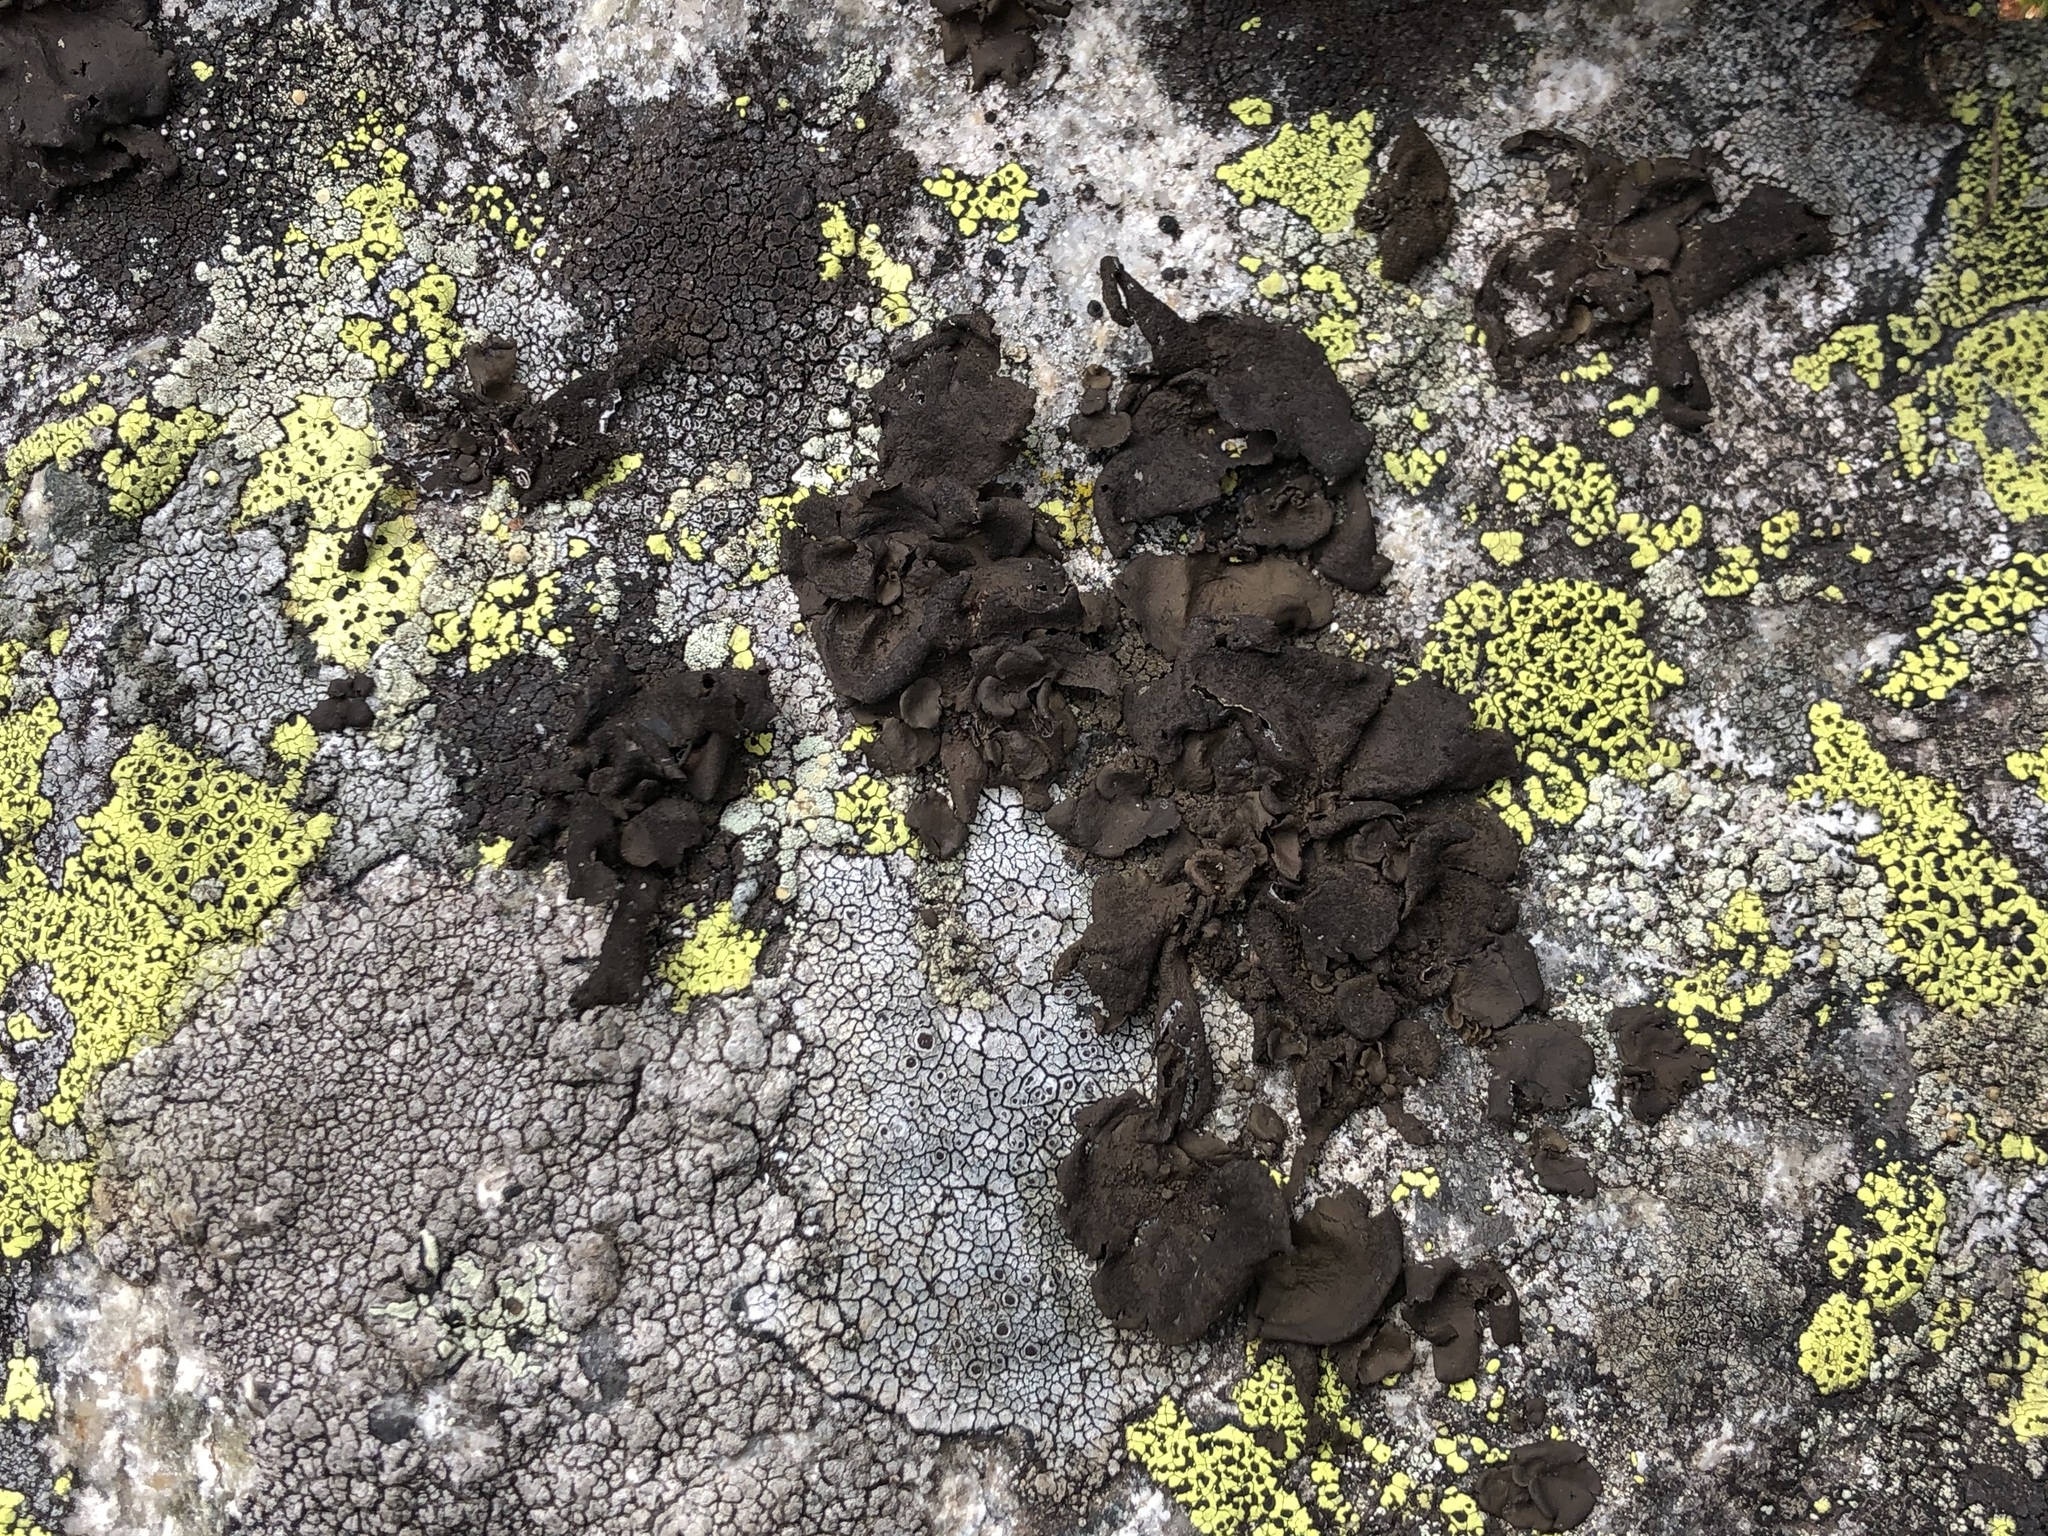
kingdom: Fungi
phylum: Ascomycota
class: Lecanoromycetes
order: Umbilicariales
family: Umbilicariaceae
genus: Umbilicaria
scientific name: Umbilicaria deusta
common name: Peppered rock tripe
